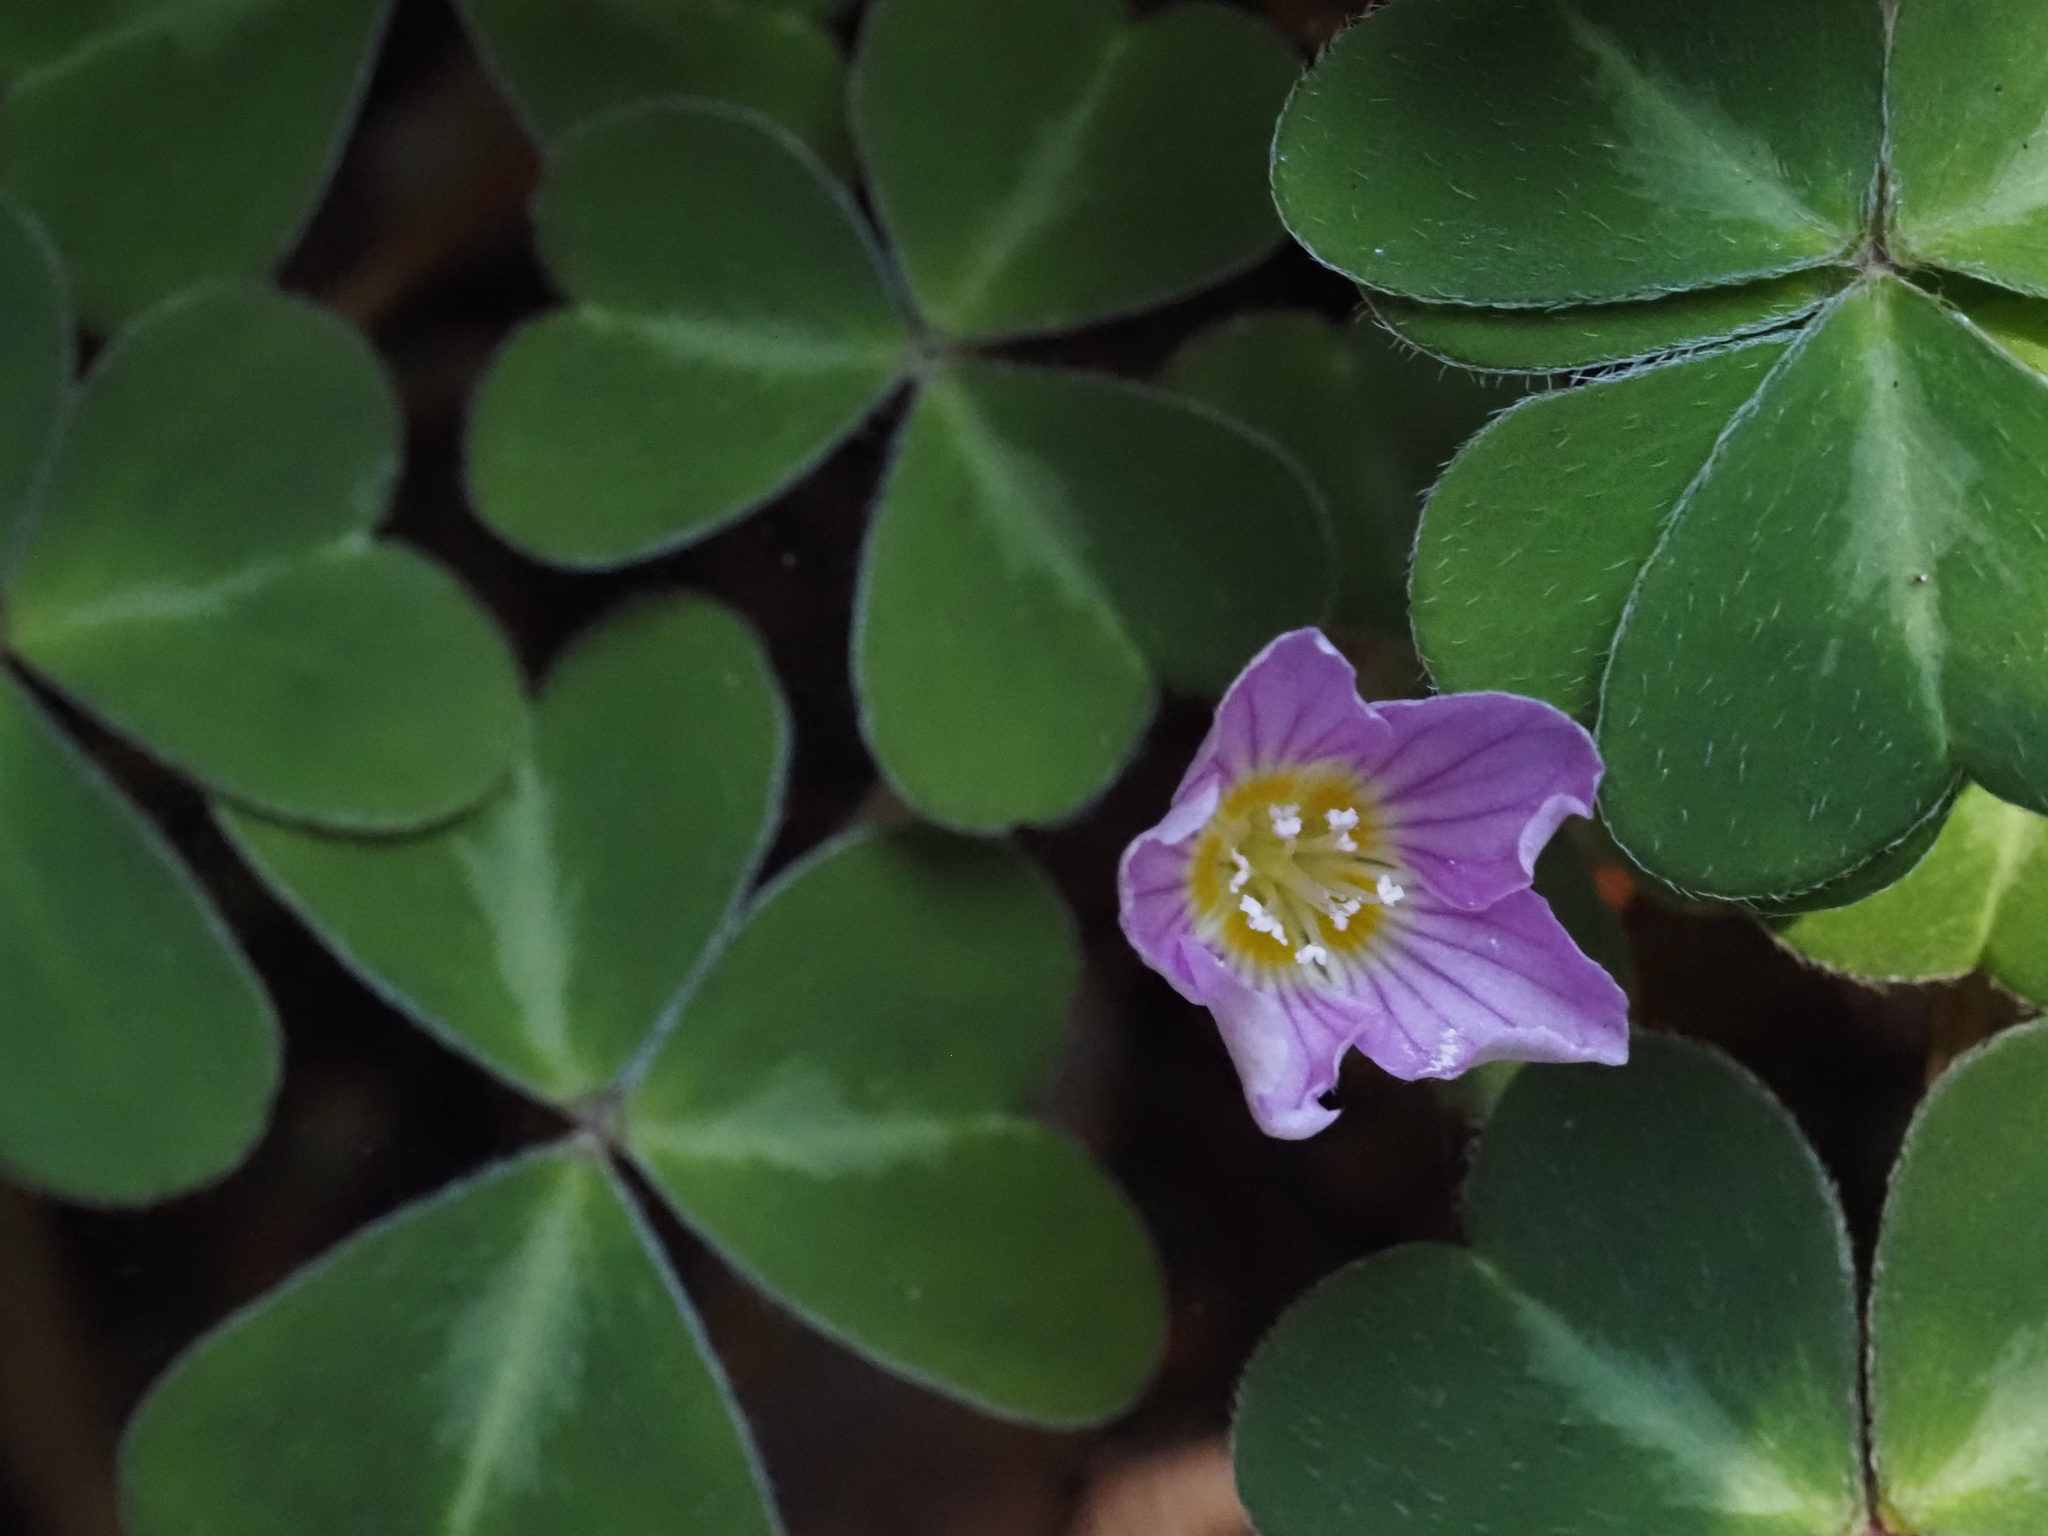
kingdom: Plantae
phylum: Tracheophyta
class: Magnoliopsida
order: Oxalidales
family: Oxalidaceae
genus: Oxalis
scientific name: Oxalis oregana
